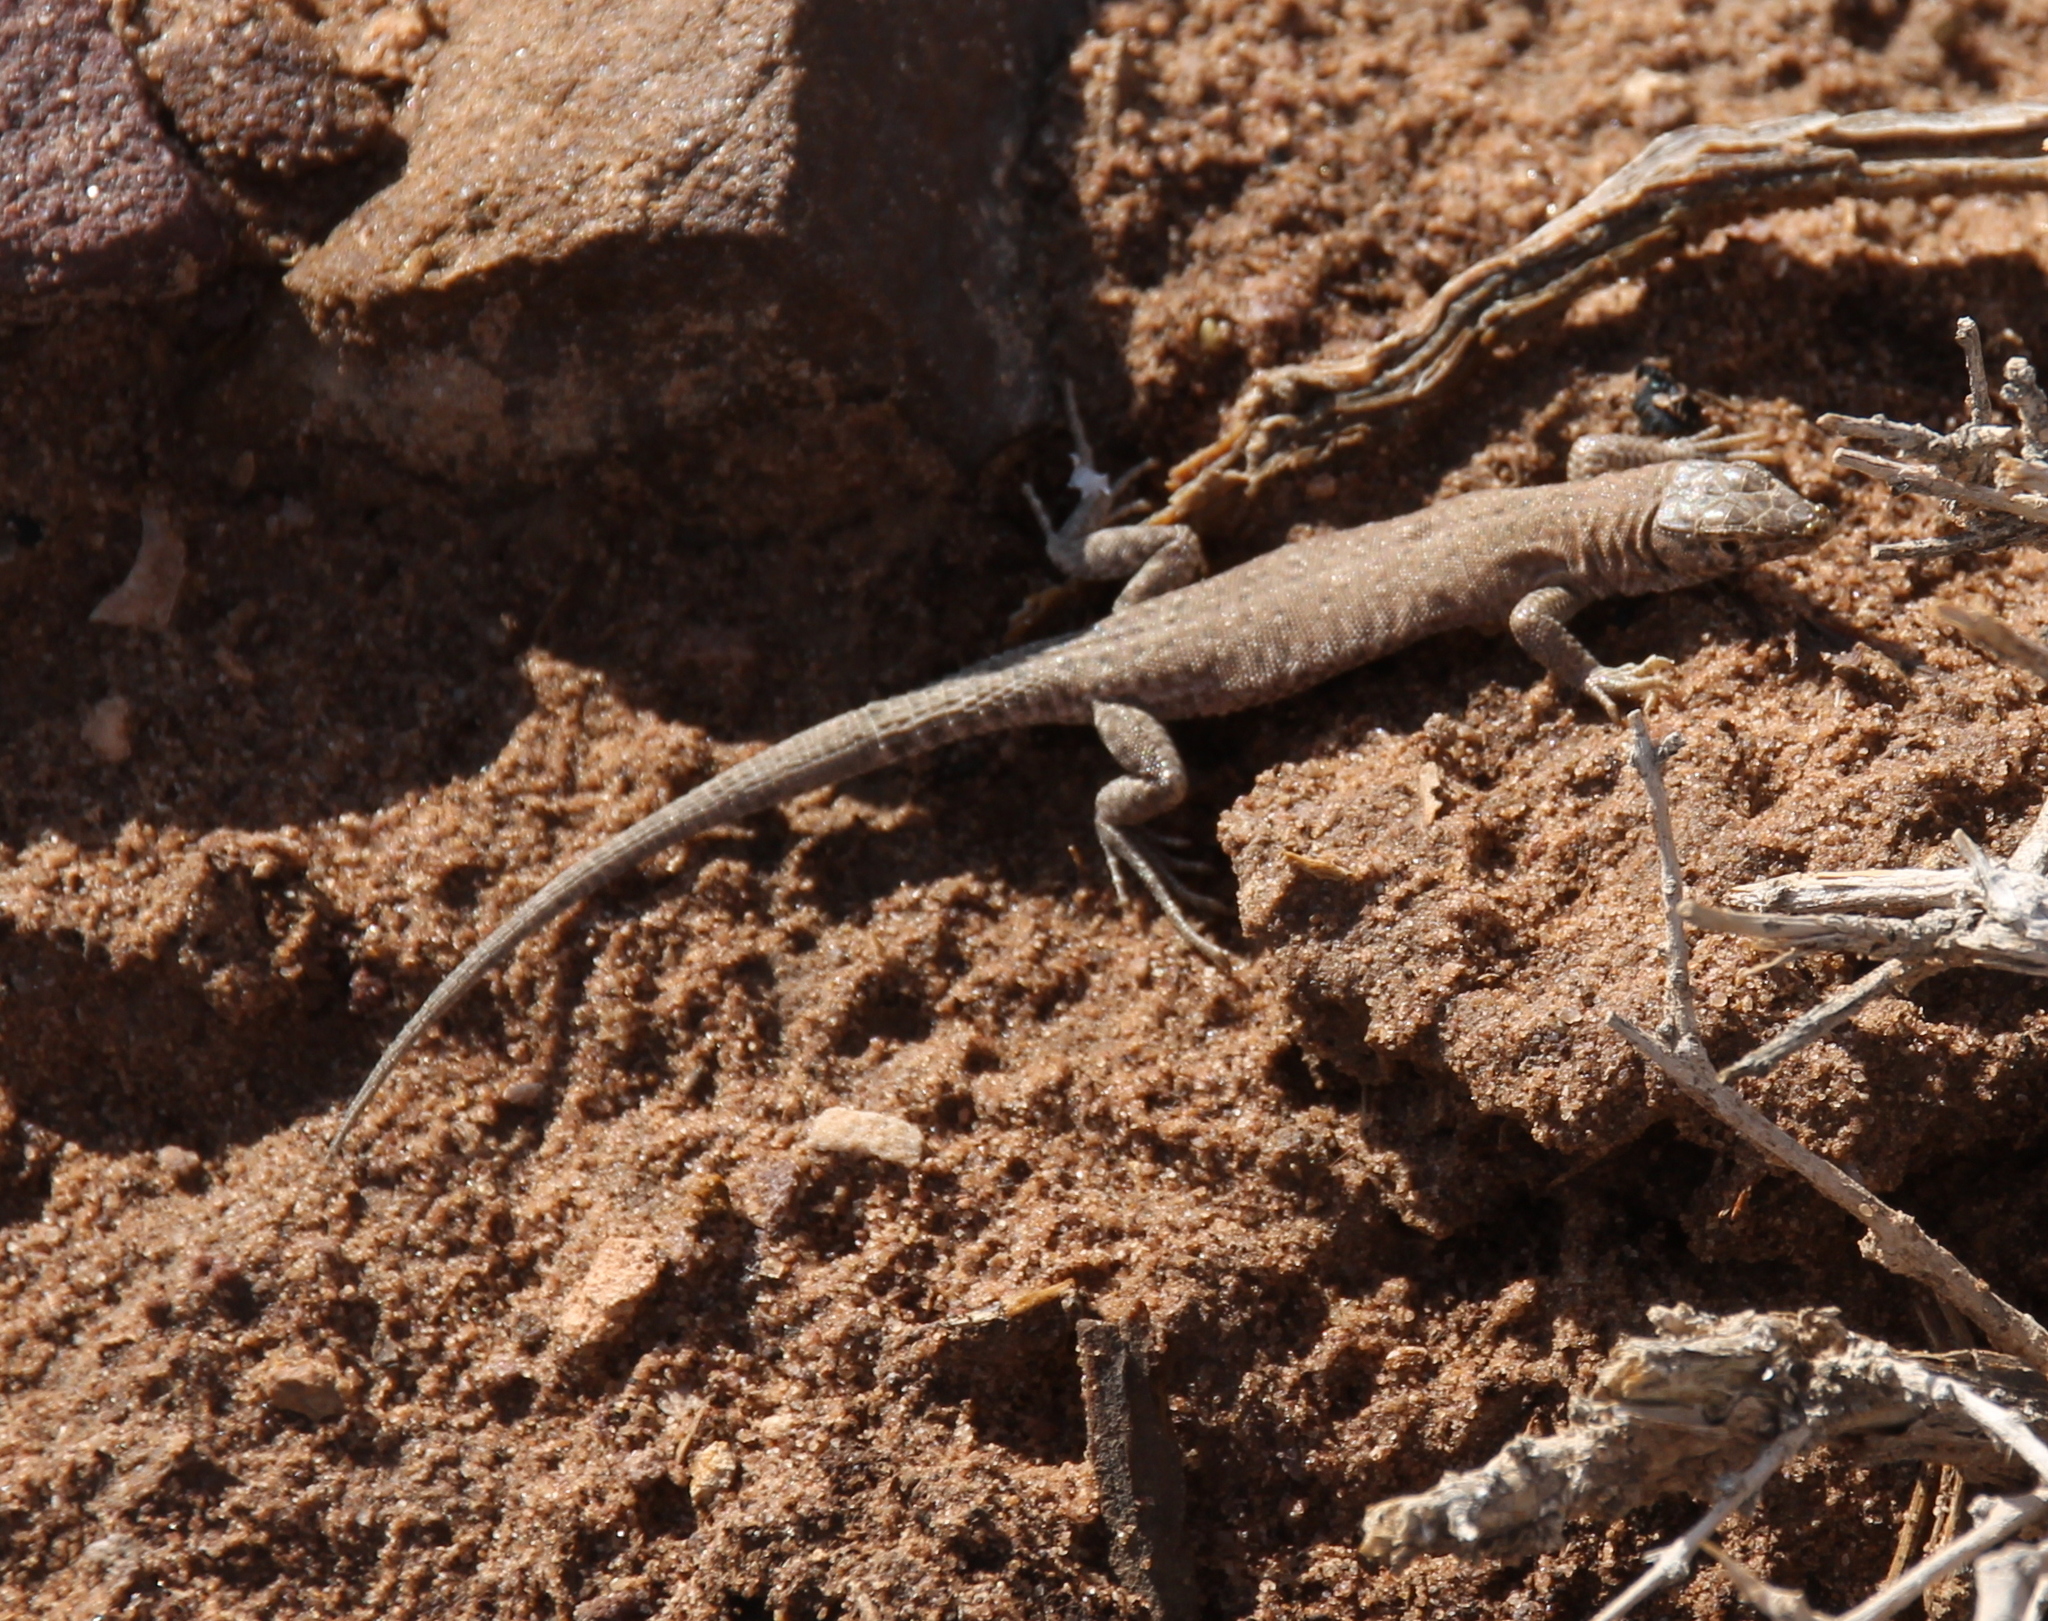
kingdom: Animalia
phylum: Chordata
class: Squamata
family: Lacertidae
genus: Mesalina
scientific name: Mesalina bahaeldini
